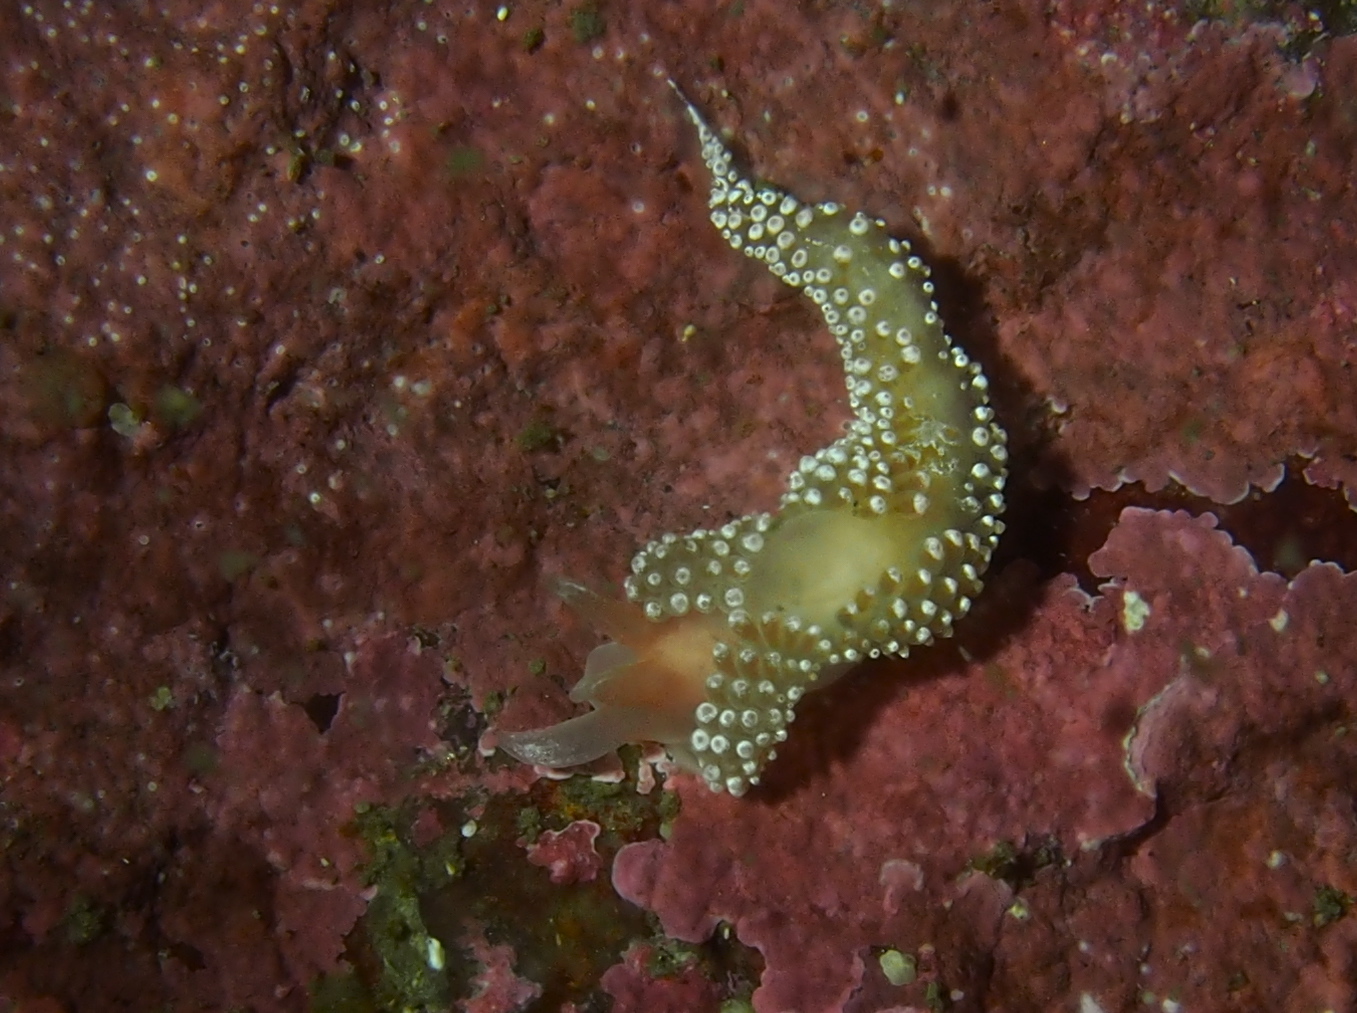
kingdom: Animalia
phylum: Mollusca
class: Gastropoda
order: Nudibranchia
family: Coryphellidae
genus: Coryphella
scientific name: Coryphella verrucosa
